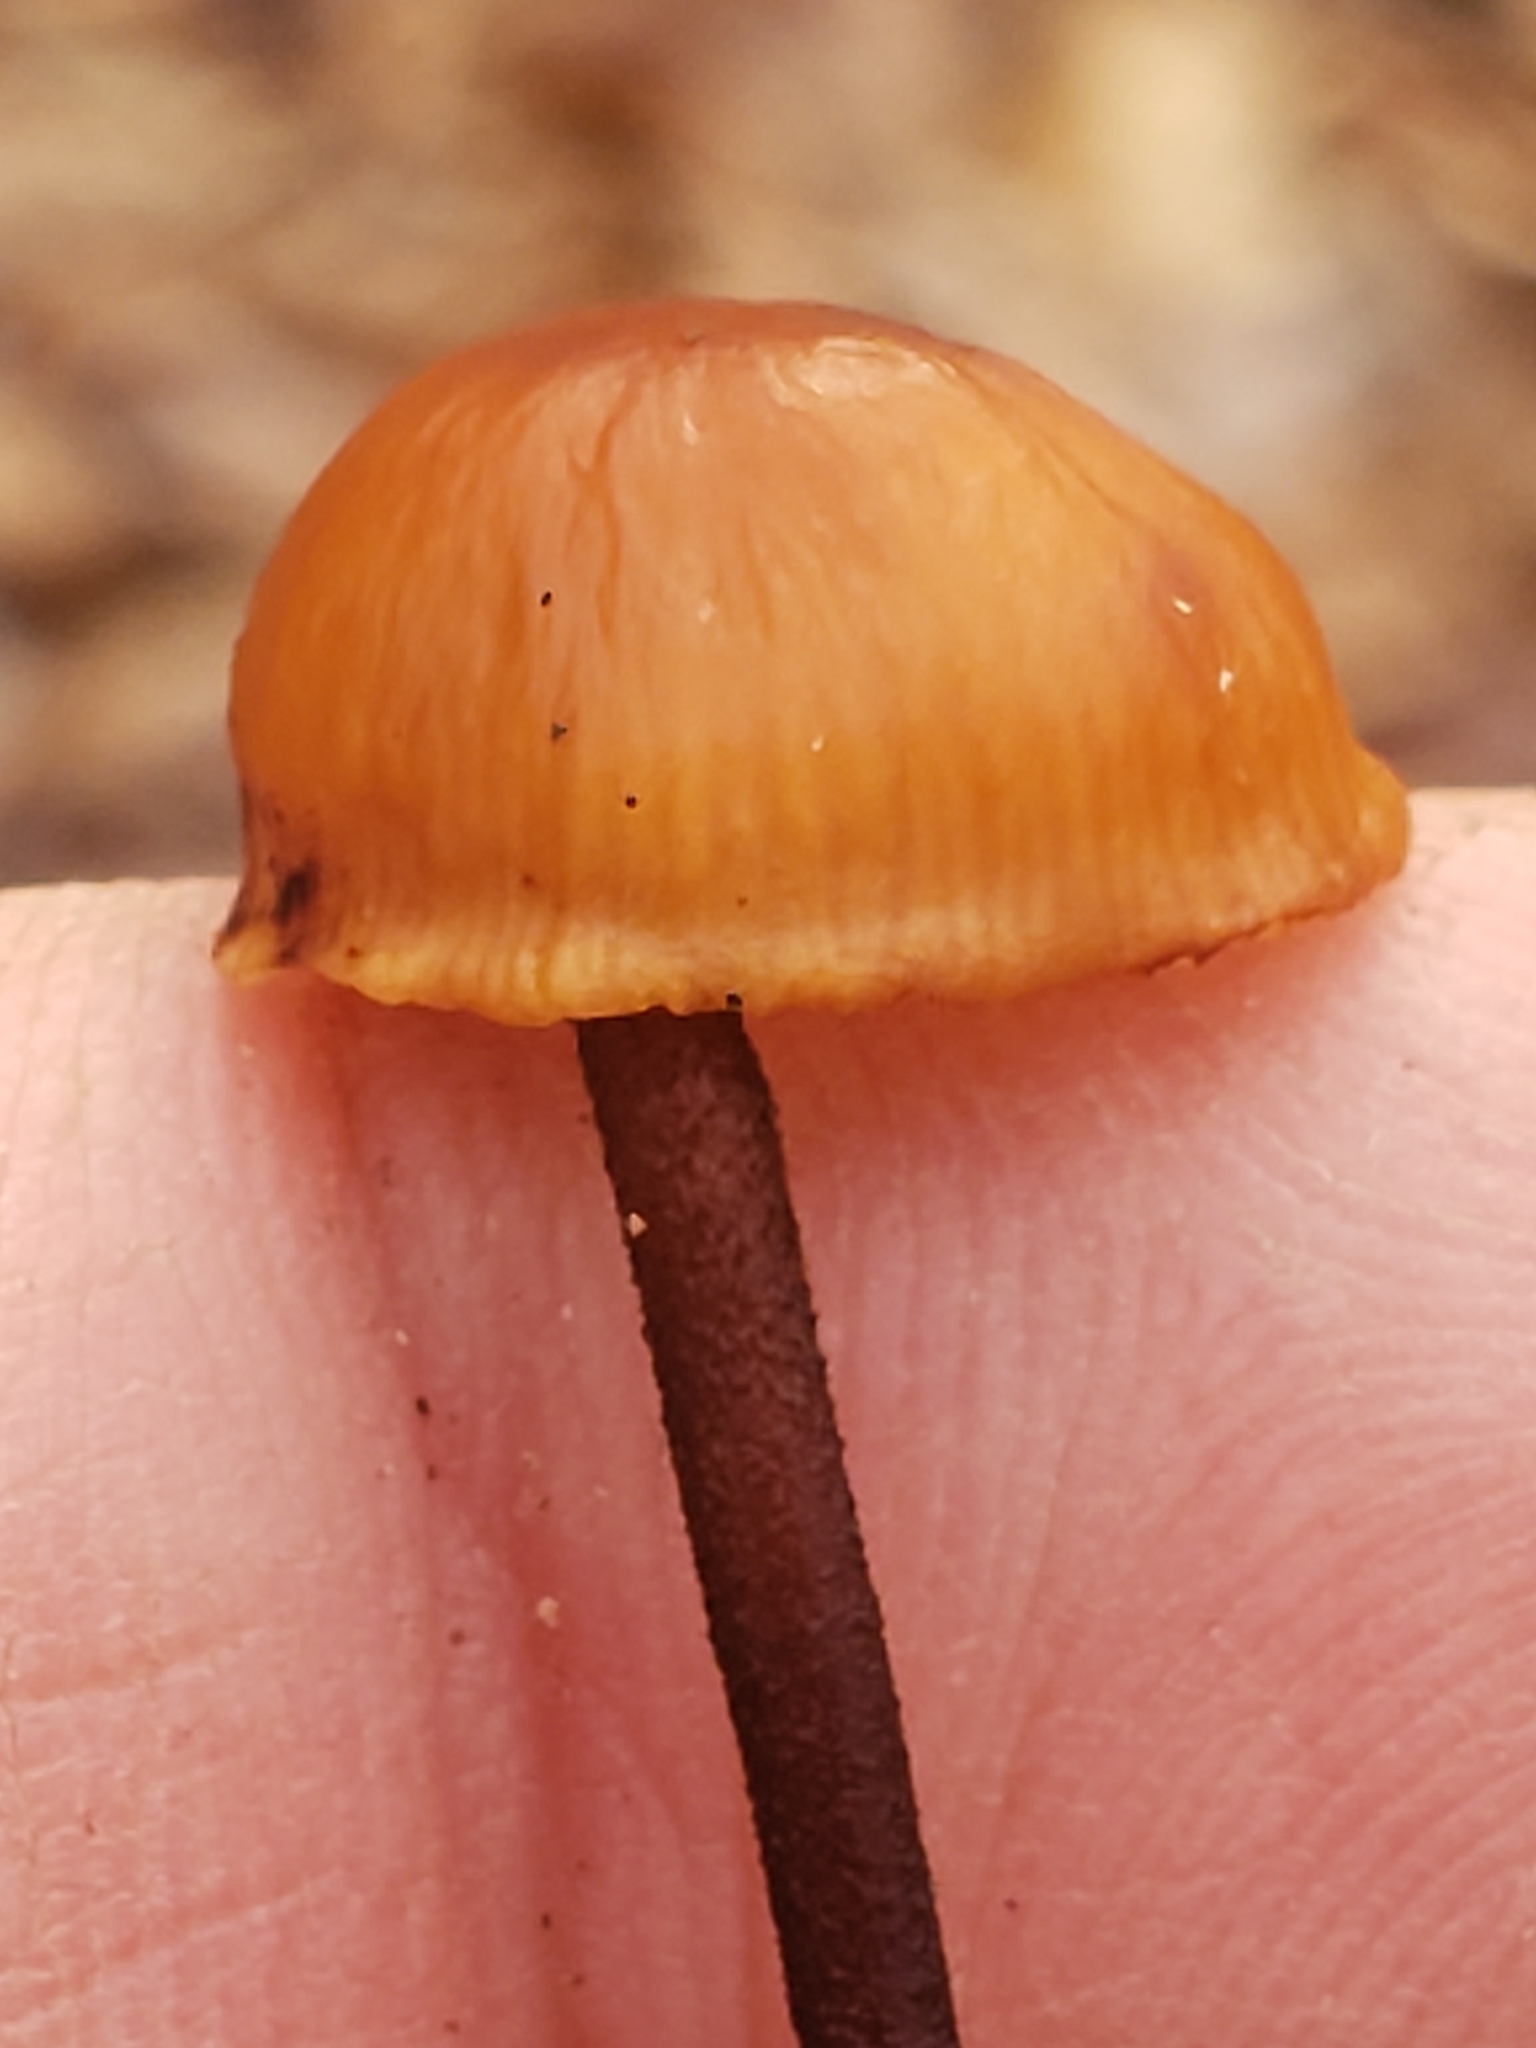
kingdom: Fungi
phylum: Basidiomycota
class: Agaricomycetes
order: Agaricales
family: Physalacriaceae
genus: Rhizomarasmius
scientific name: Rhizomarasmius pyrrhocephalus
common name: Hairy long stem marasmius
